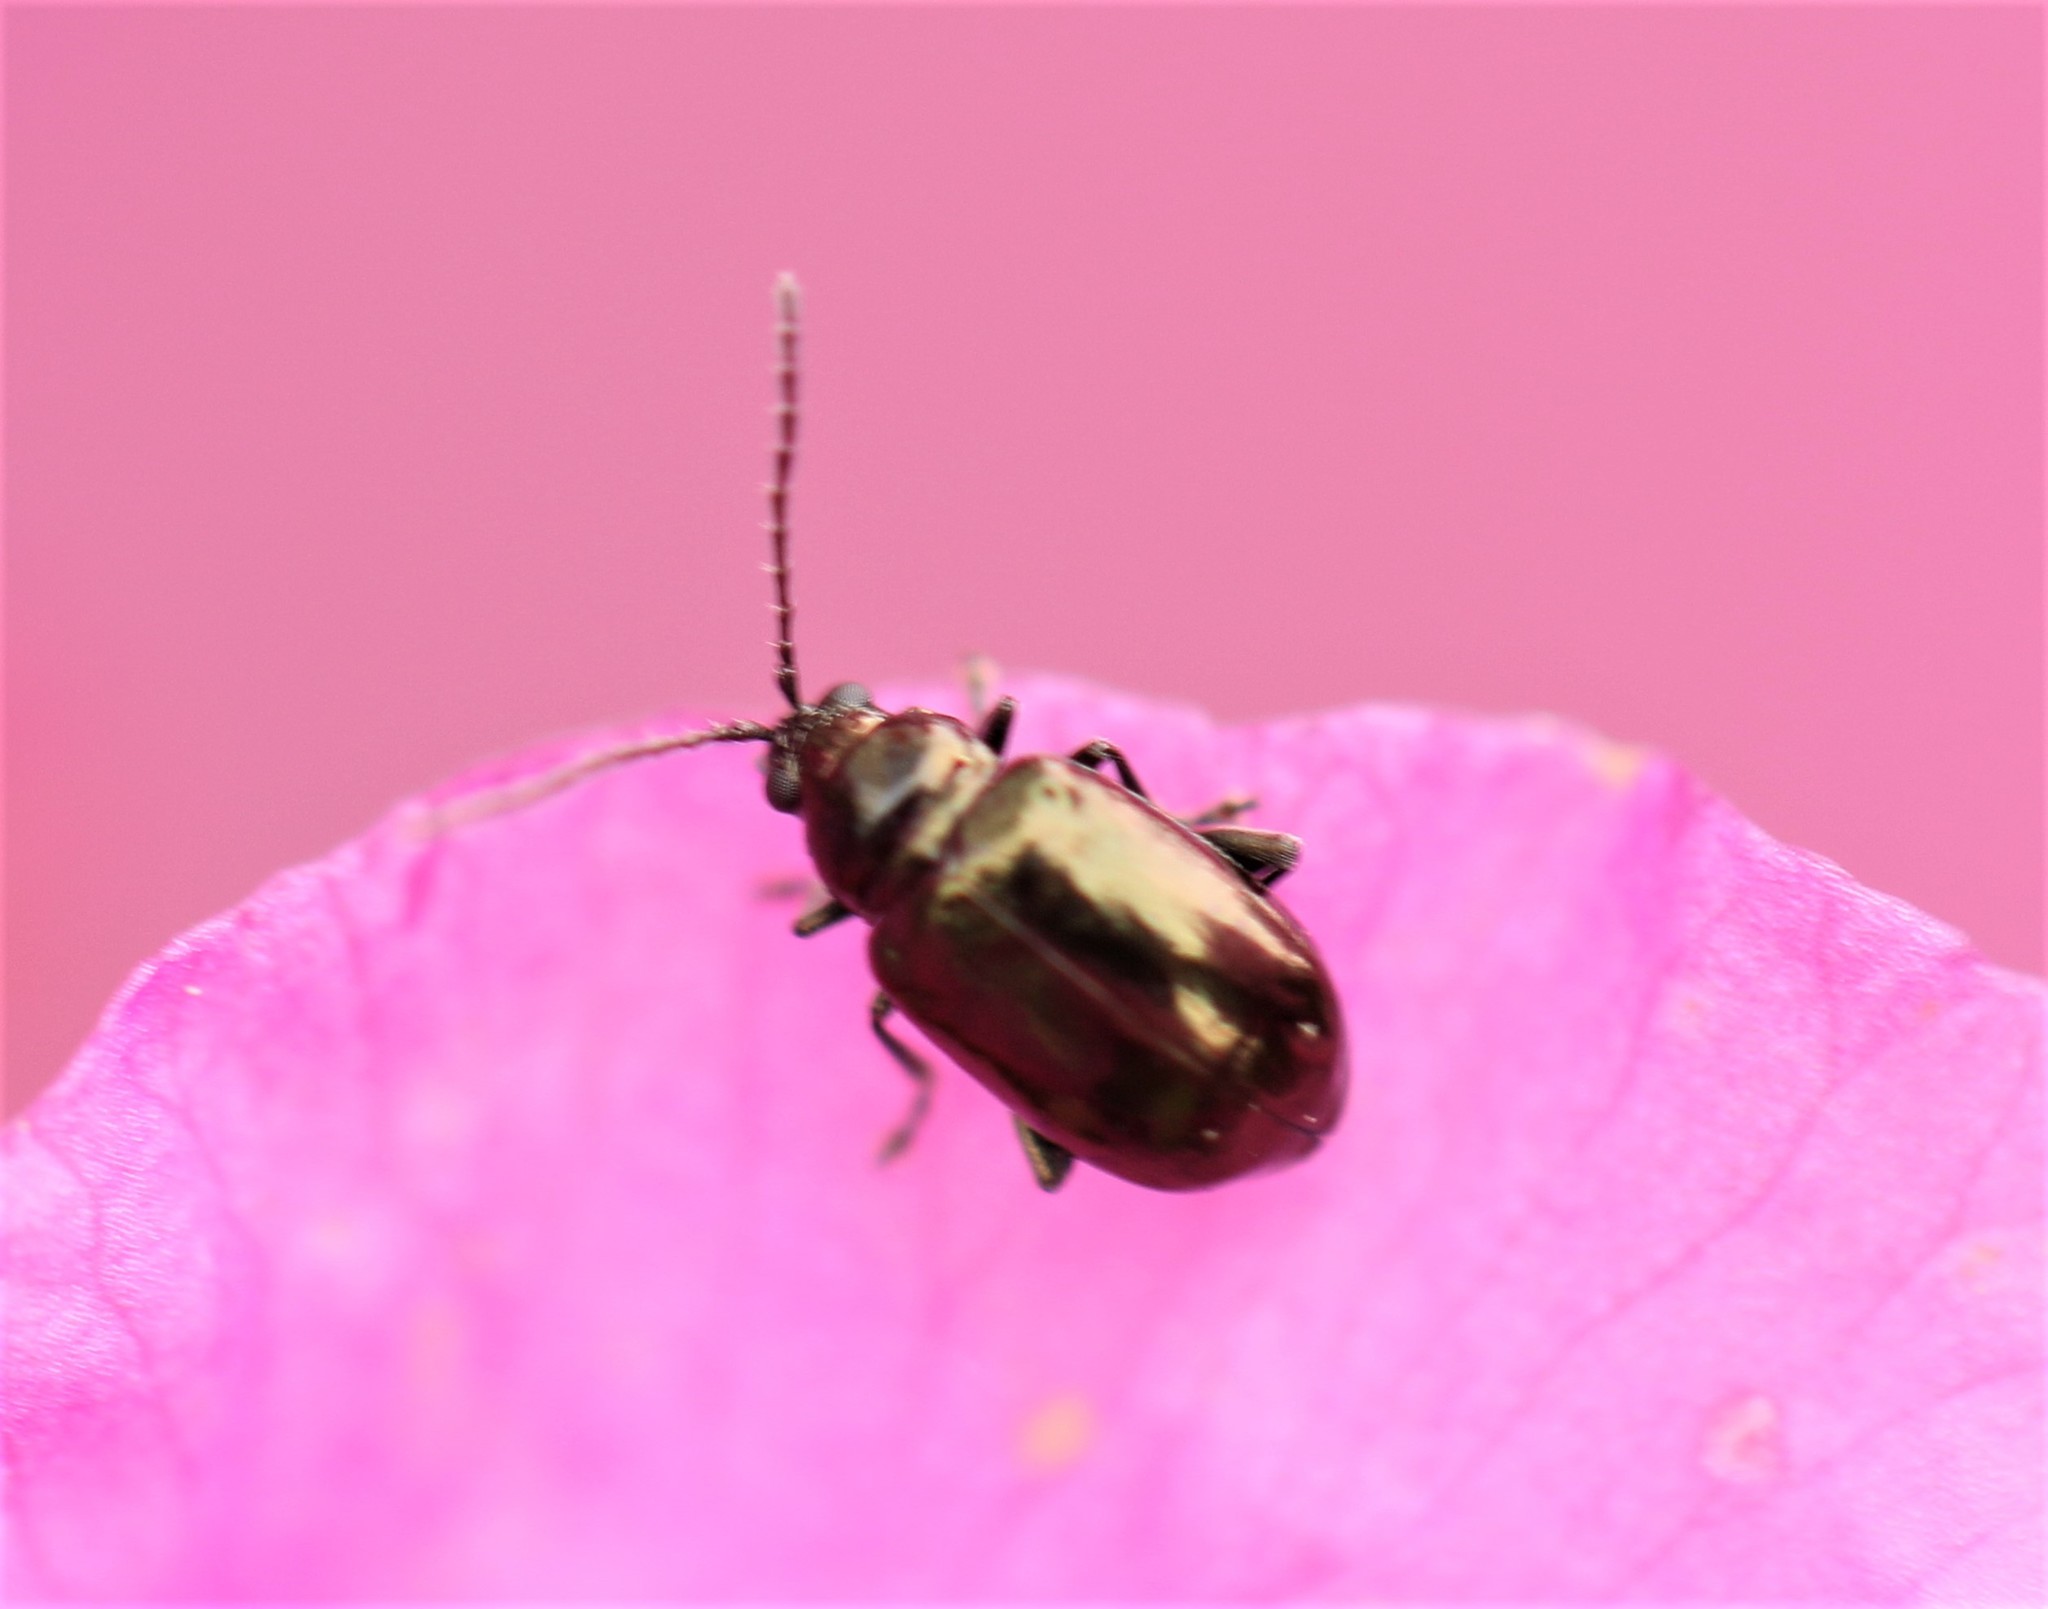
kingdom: Animalia
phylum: Arthropoda
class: Insecta
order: Coleoptera
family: Chrysomelidae
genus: Altica
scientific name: Altica kalmiae
